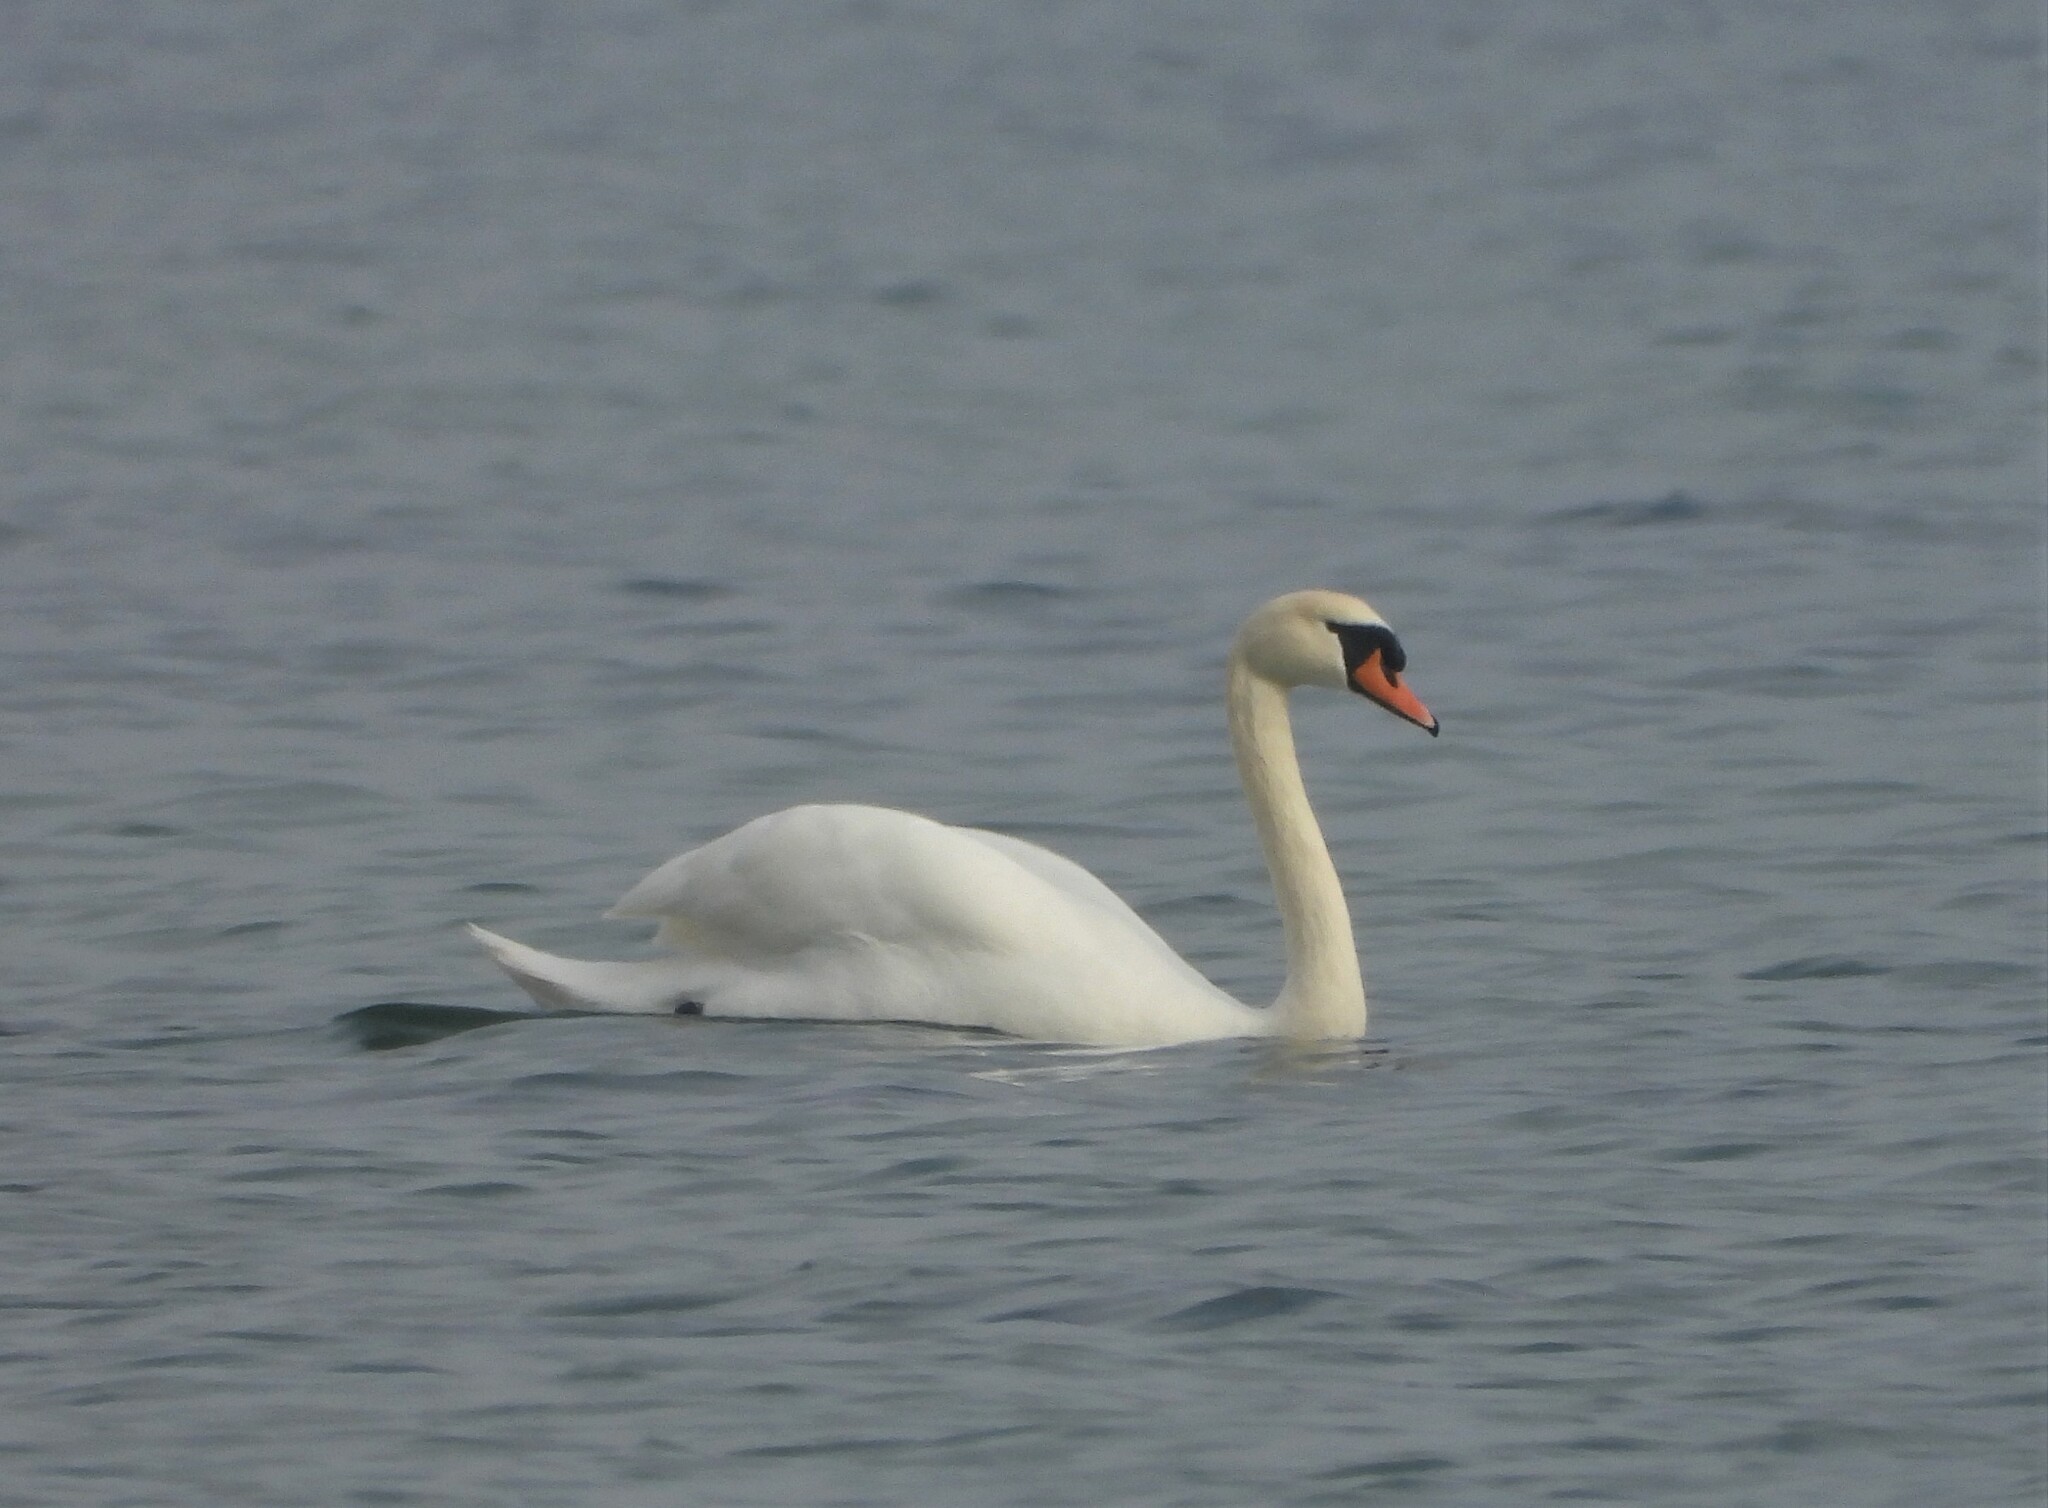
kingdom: Animalia
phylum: Chordata
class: Aves
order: Anseriformes
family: Anatidae
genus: Cygnus
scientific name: Cygnus olor
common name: Mute swan
